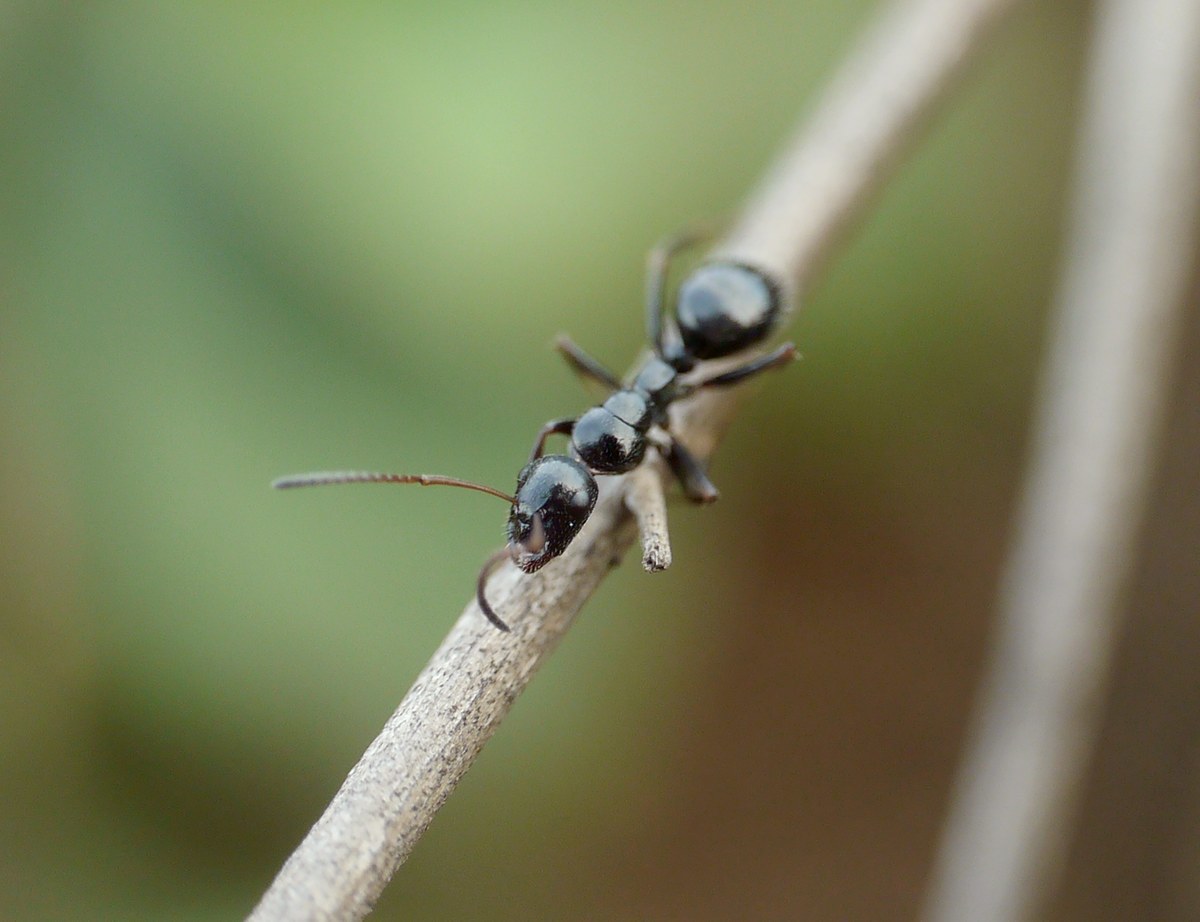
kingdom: Animalia
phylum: Arthropoda
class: Insecta
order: Hymenoptera
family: Formicidae
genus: Camponotus
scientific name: Camponotus piceus
